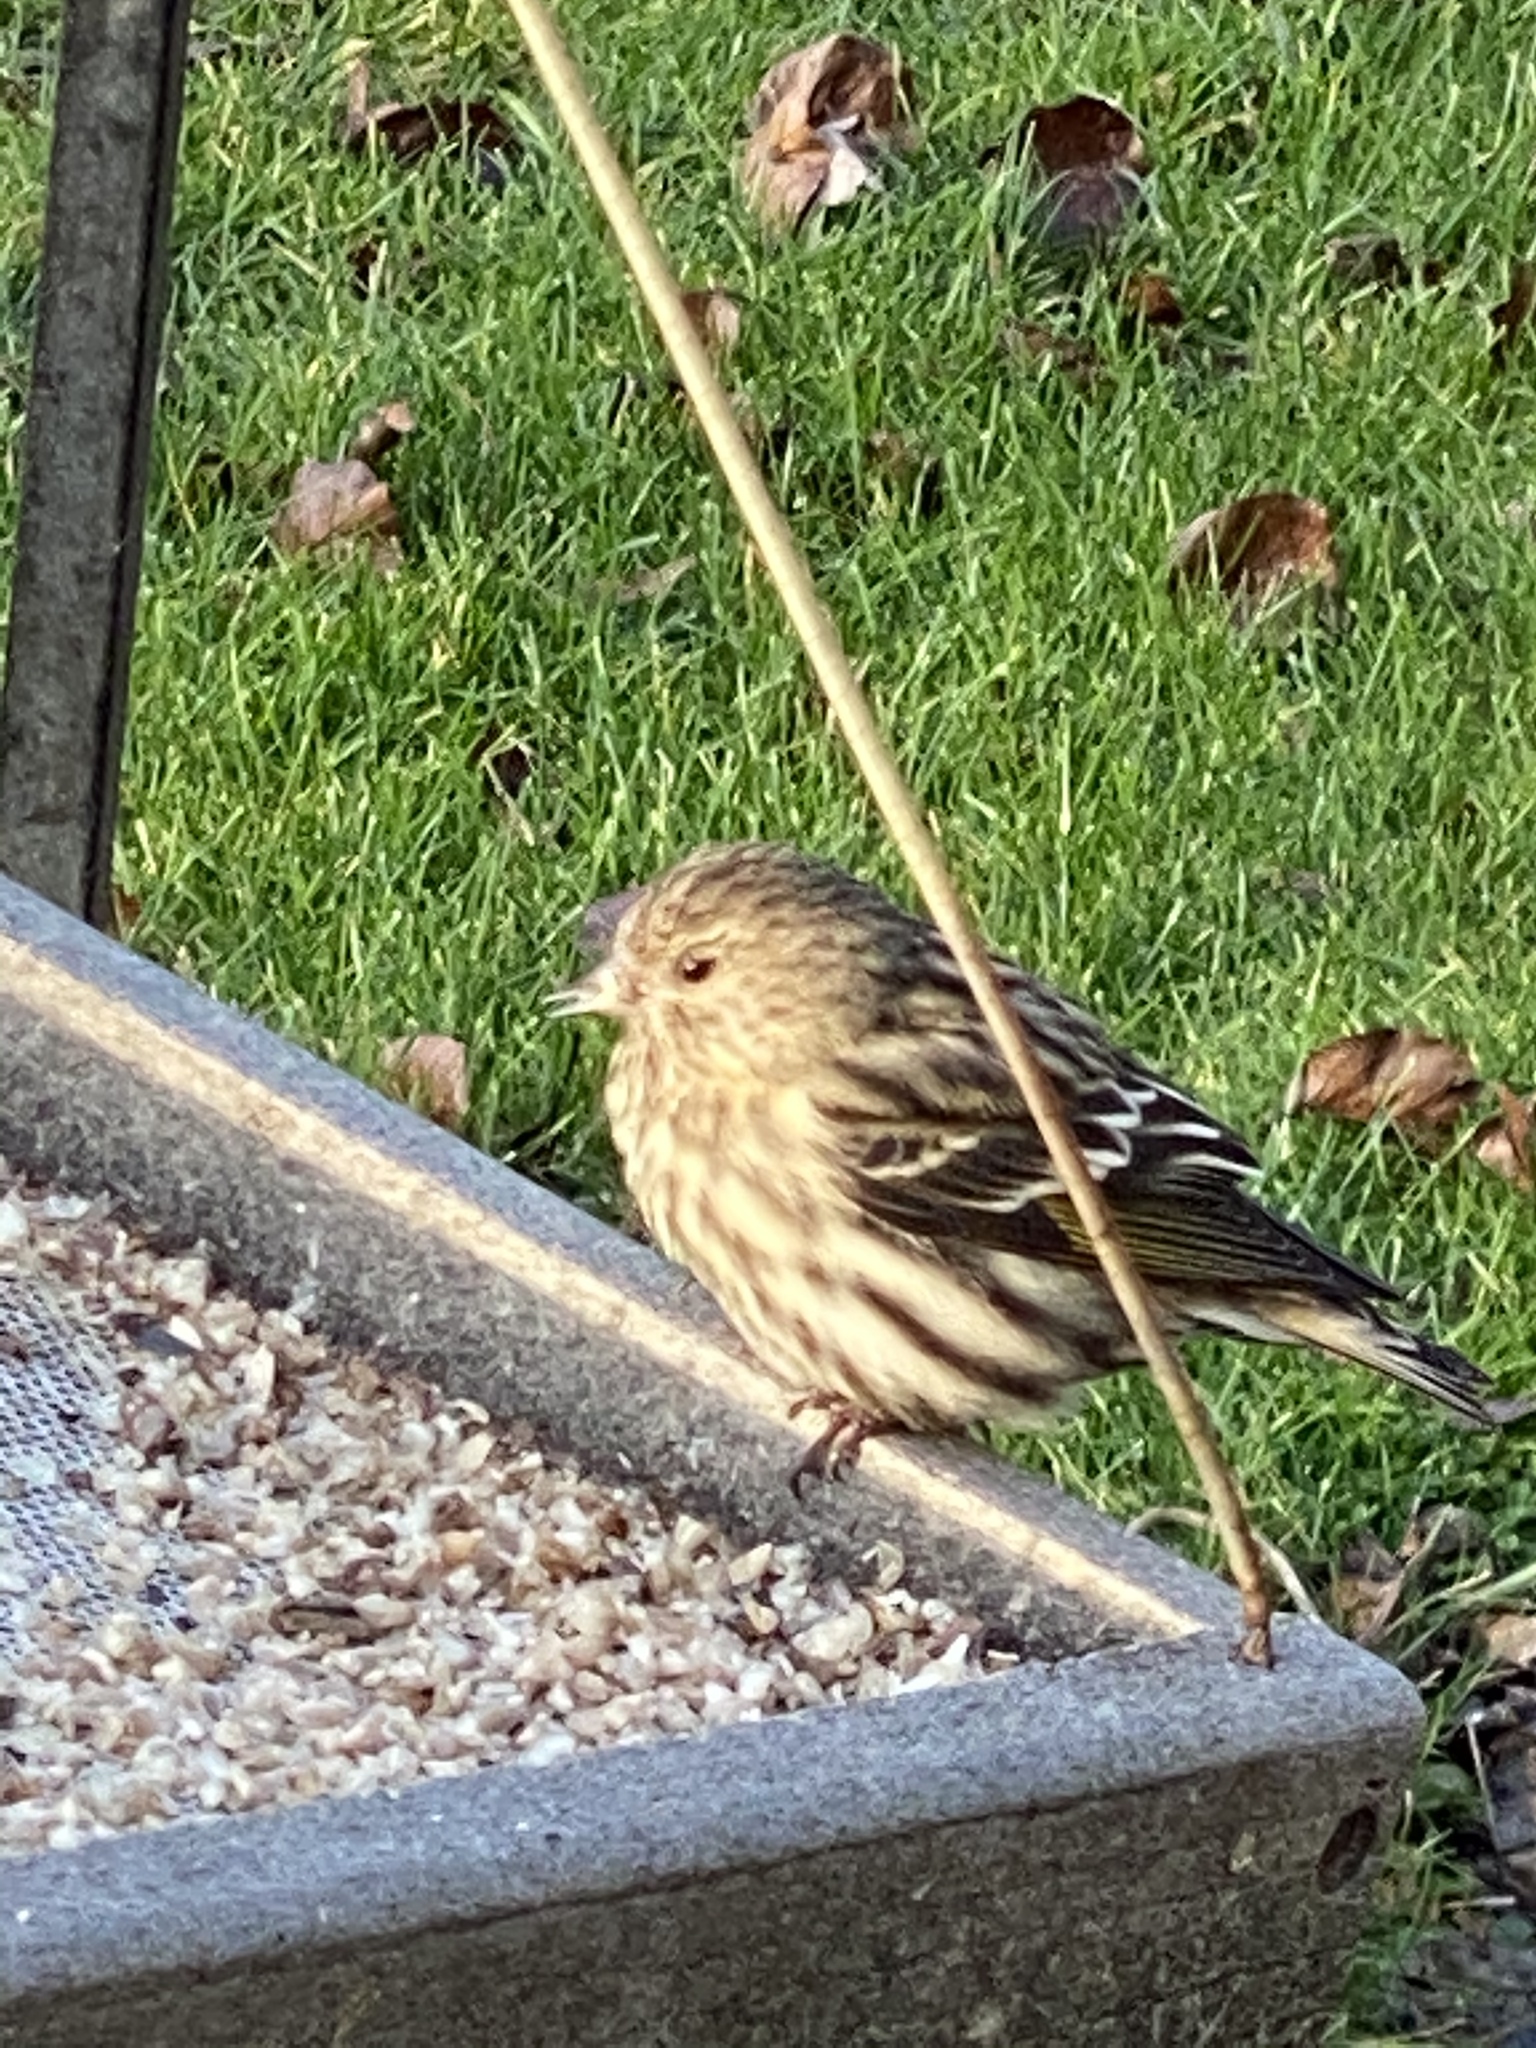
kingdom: Animalia
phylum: Chordata
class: Aves
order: Passeriformes
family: Fringillidae
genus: Spinus
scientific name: Spinus pinus
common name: Pine siskin
